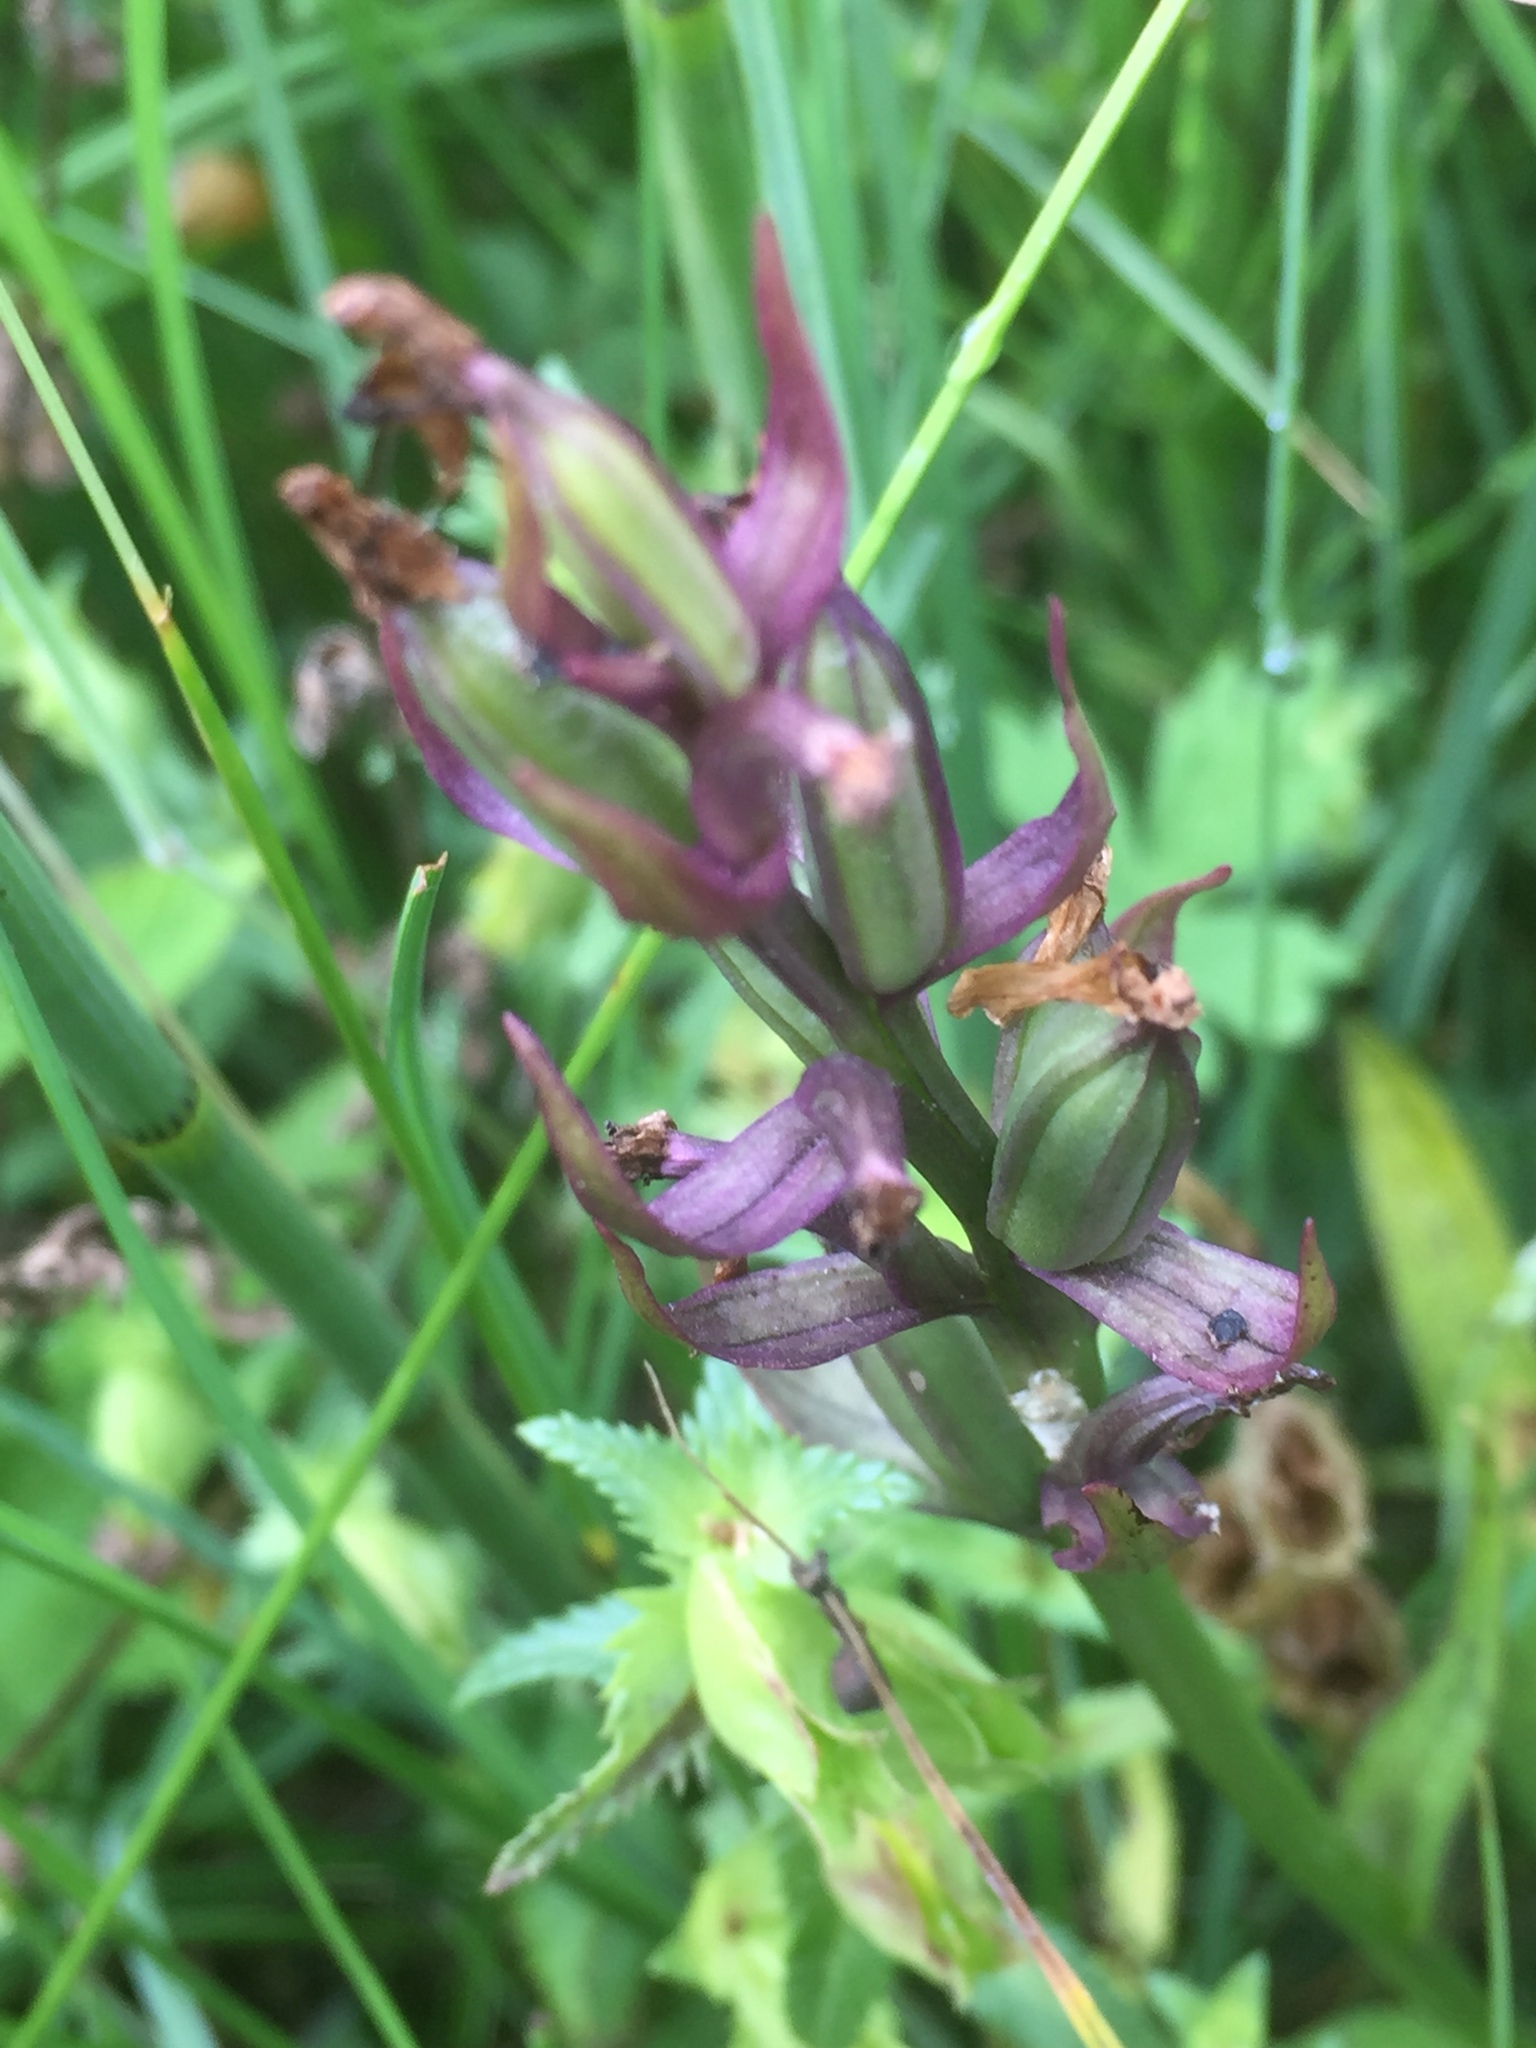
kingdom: Plantae
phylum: Tracheophyta
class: Liliopsida
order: Asparagales
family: Orchidaceae
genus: Dactylorhiza
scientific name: Dactylorhiza majalis
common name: Marsh orchid
